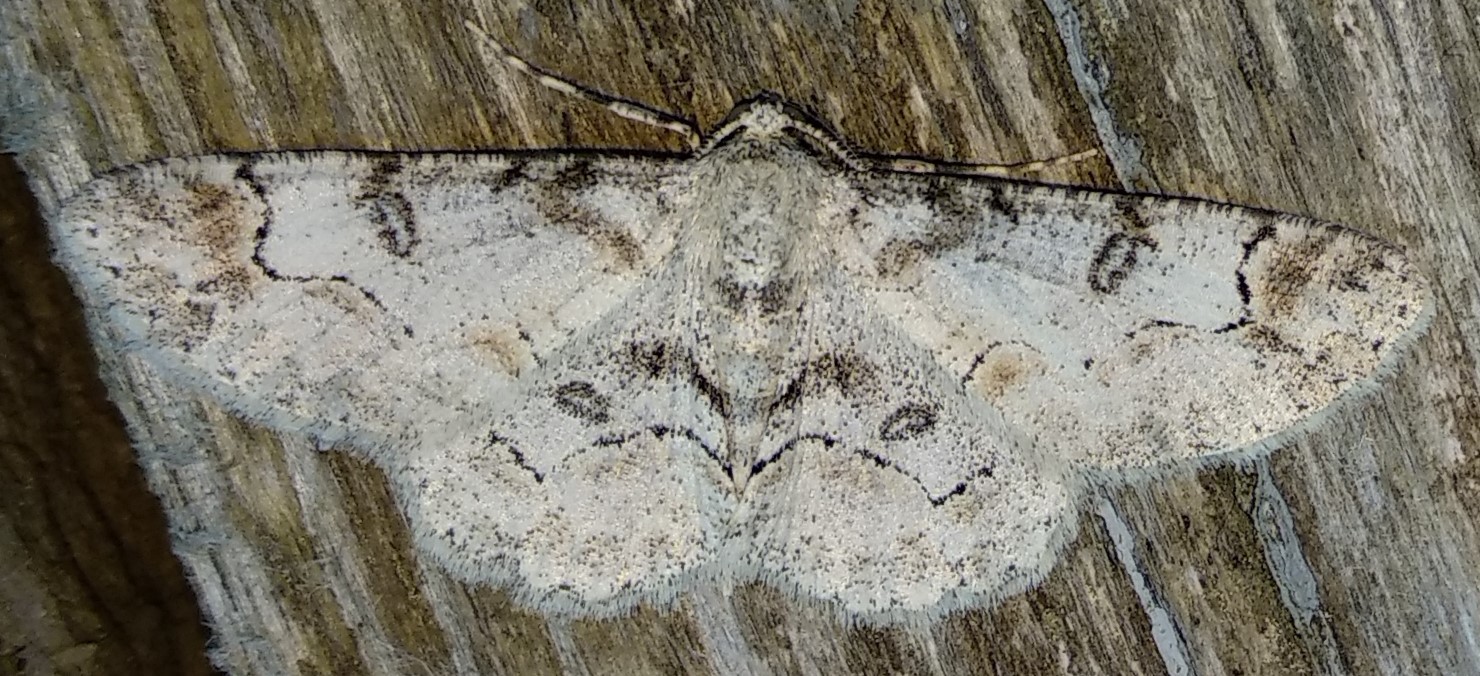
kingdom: Animalia
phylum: Arthropoda
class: Insecta
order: Lepidoptera
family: Geometridae
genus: Iridopsis
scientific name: Iridopsis larvaria
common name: Bent-line gray
